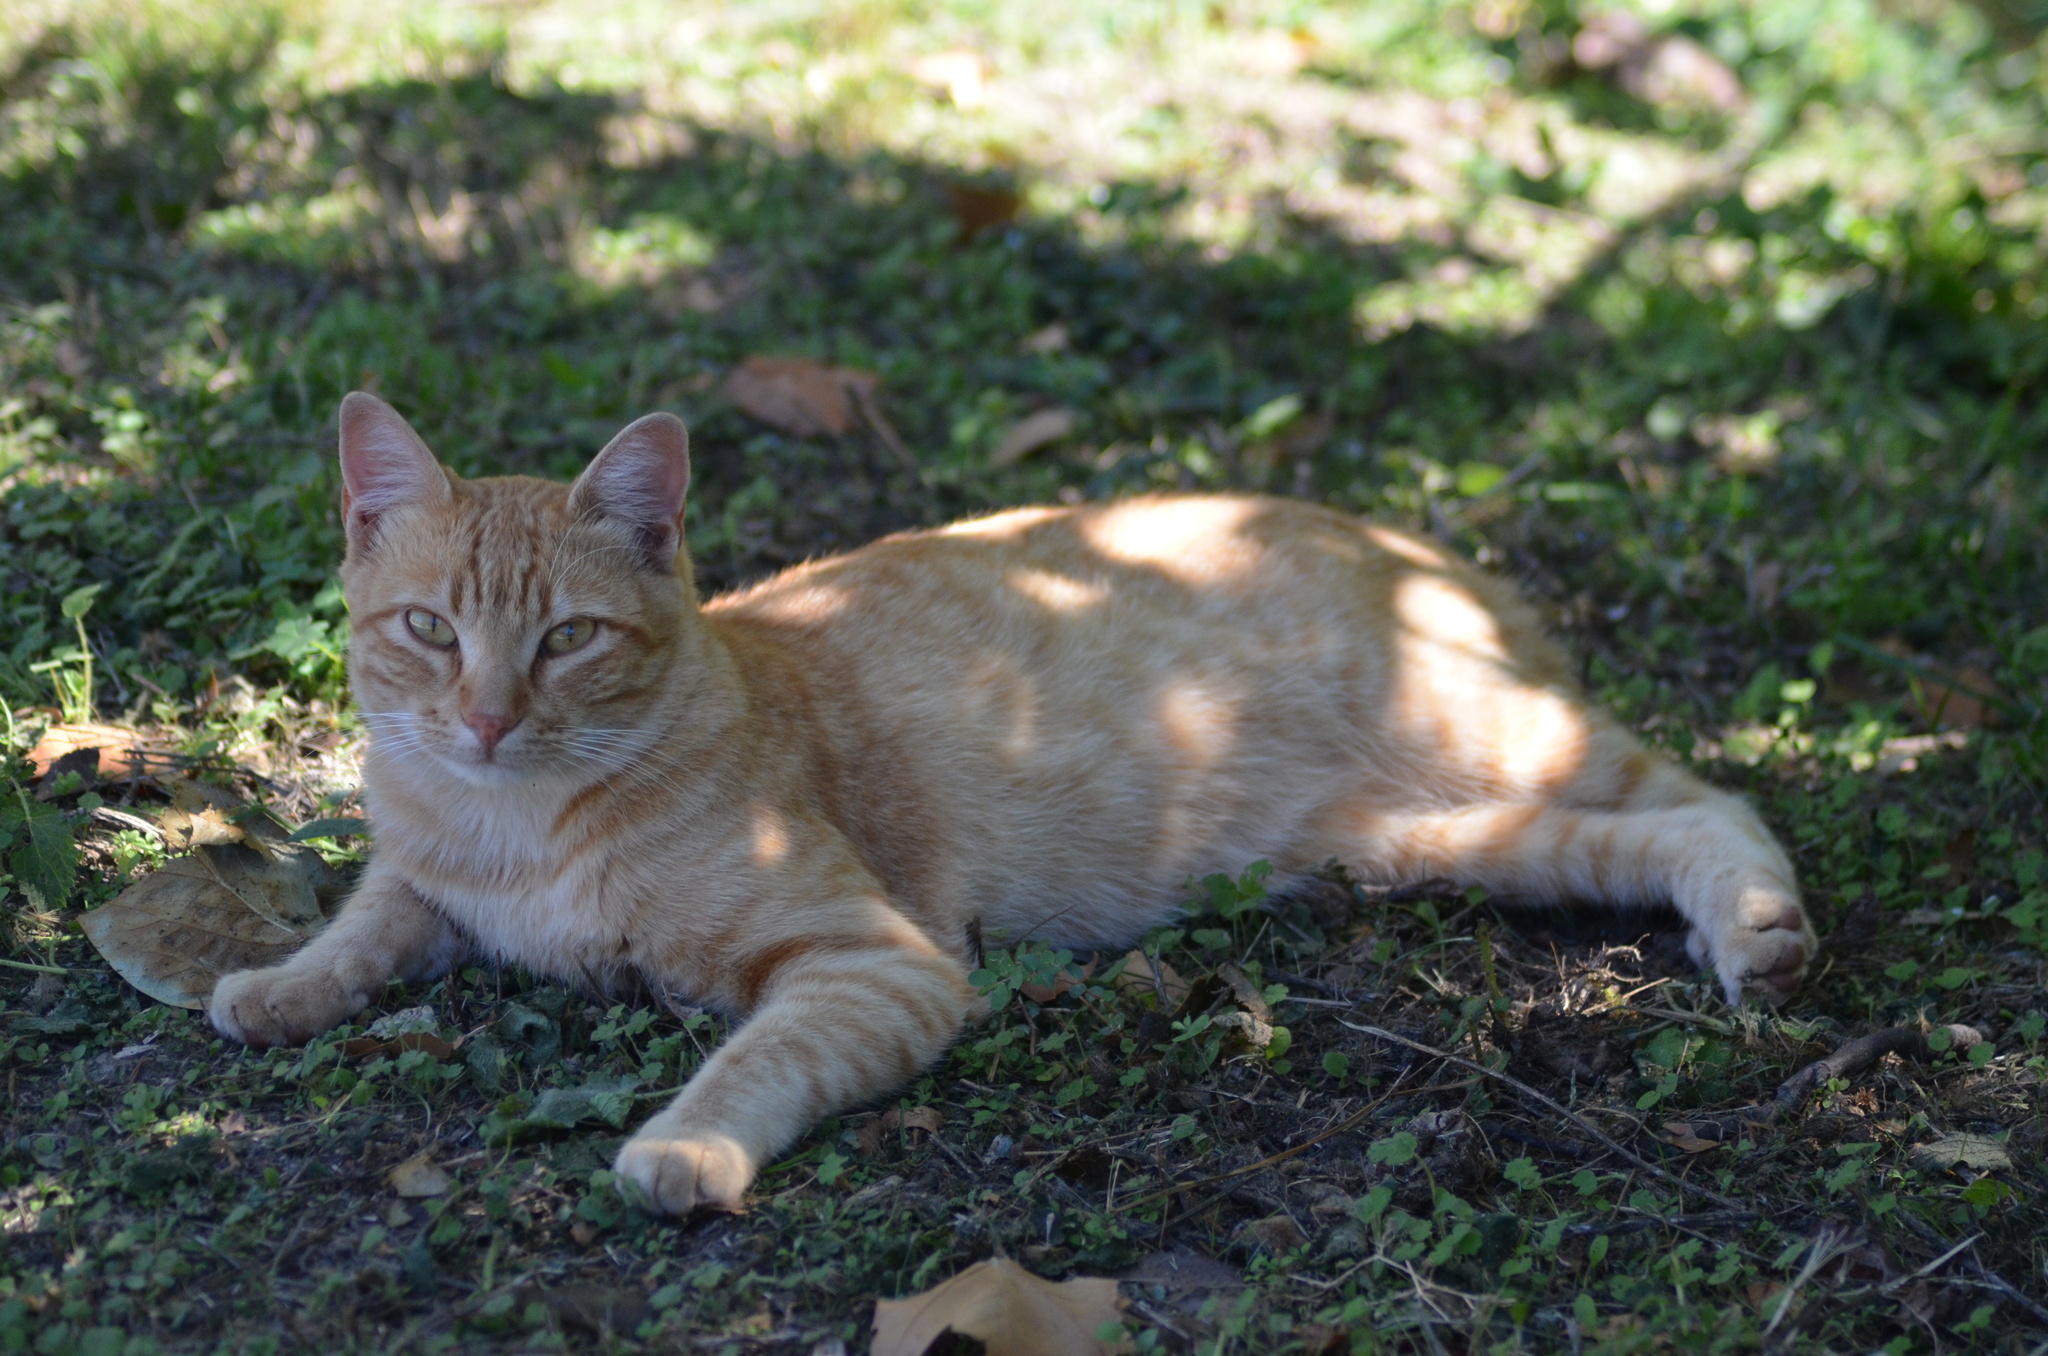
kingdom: Animalia
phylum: Chordata
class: Mammalia
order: Carnivora
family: Felidae
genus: Felis
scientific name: Felis catus
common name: Domestic cat
